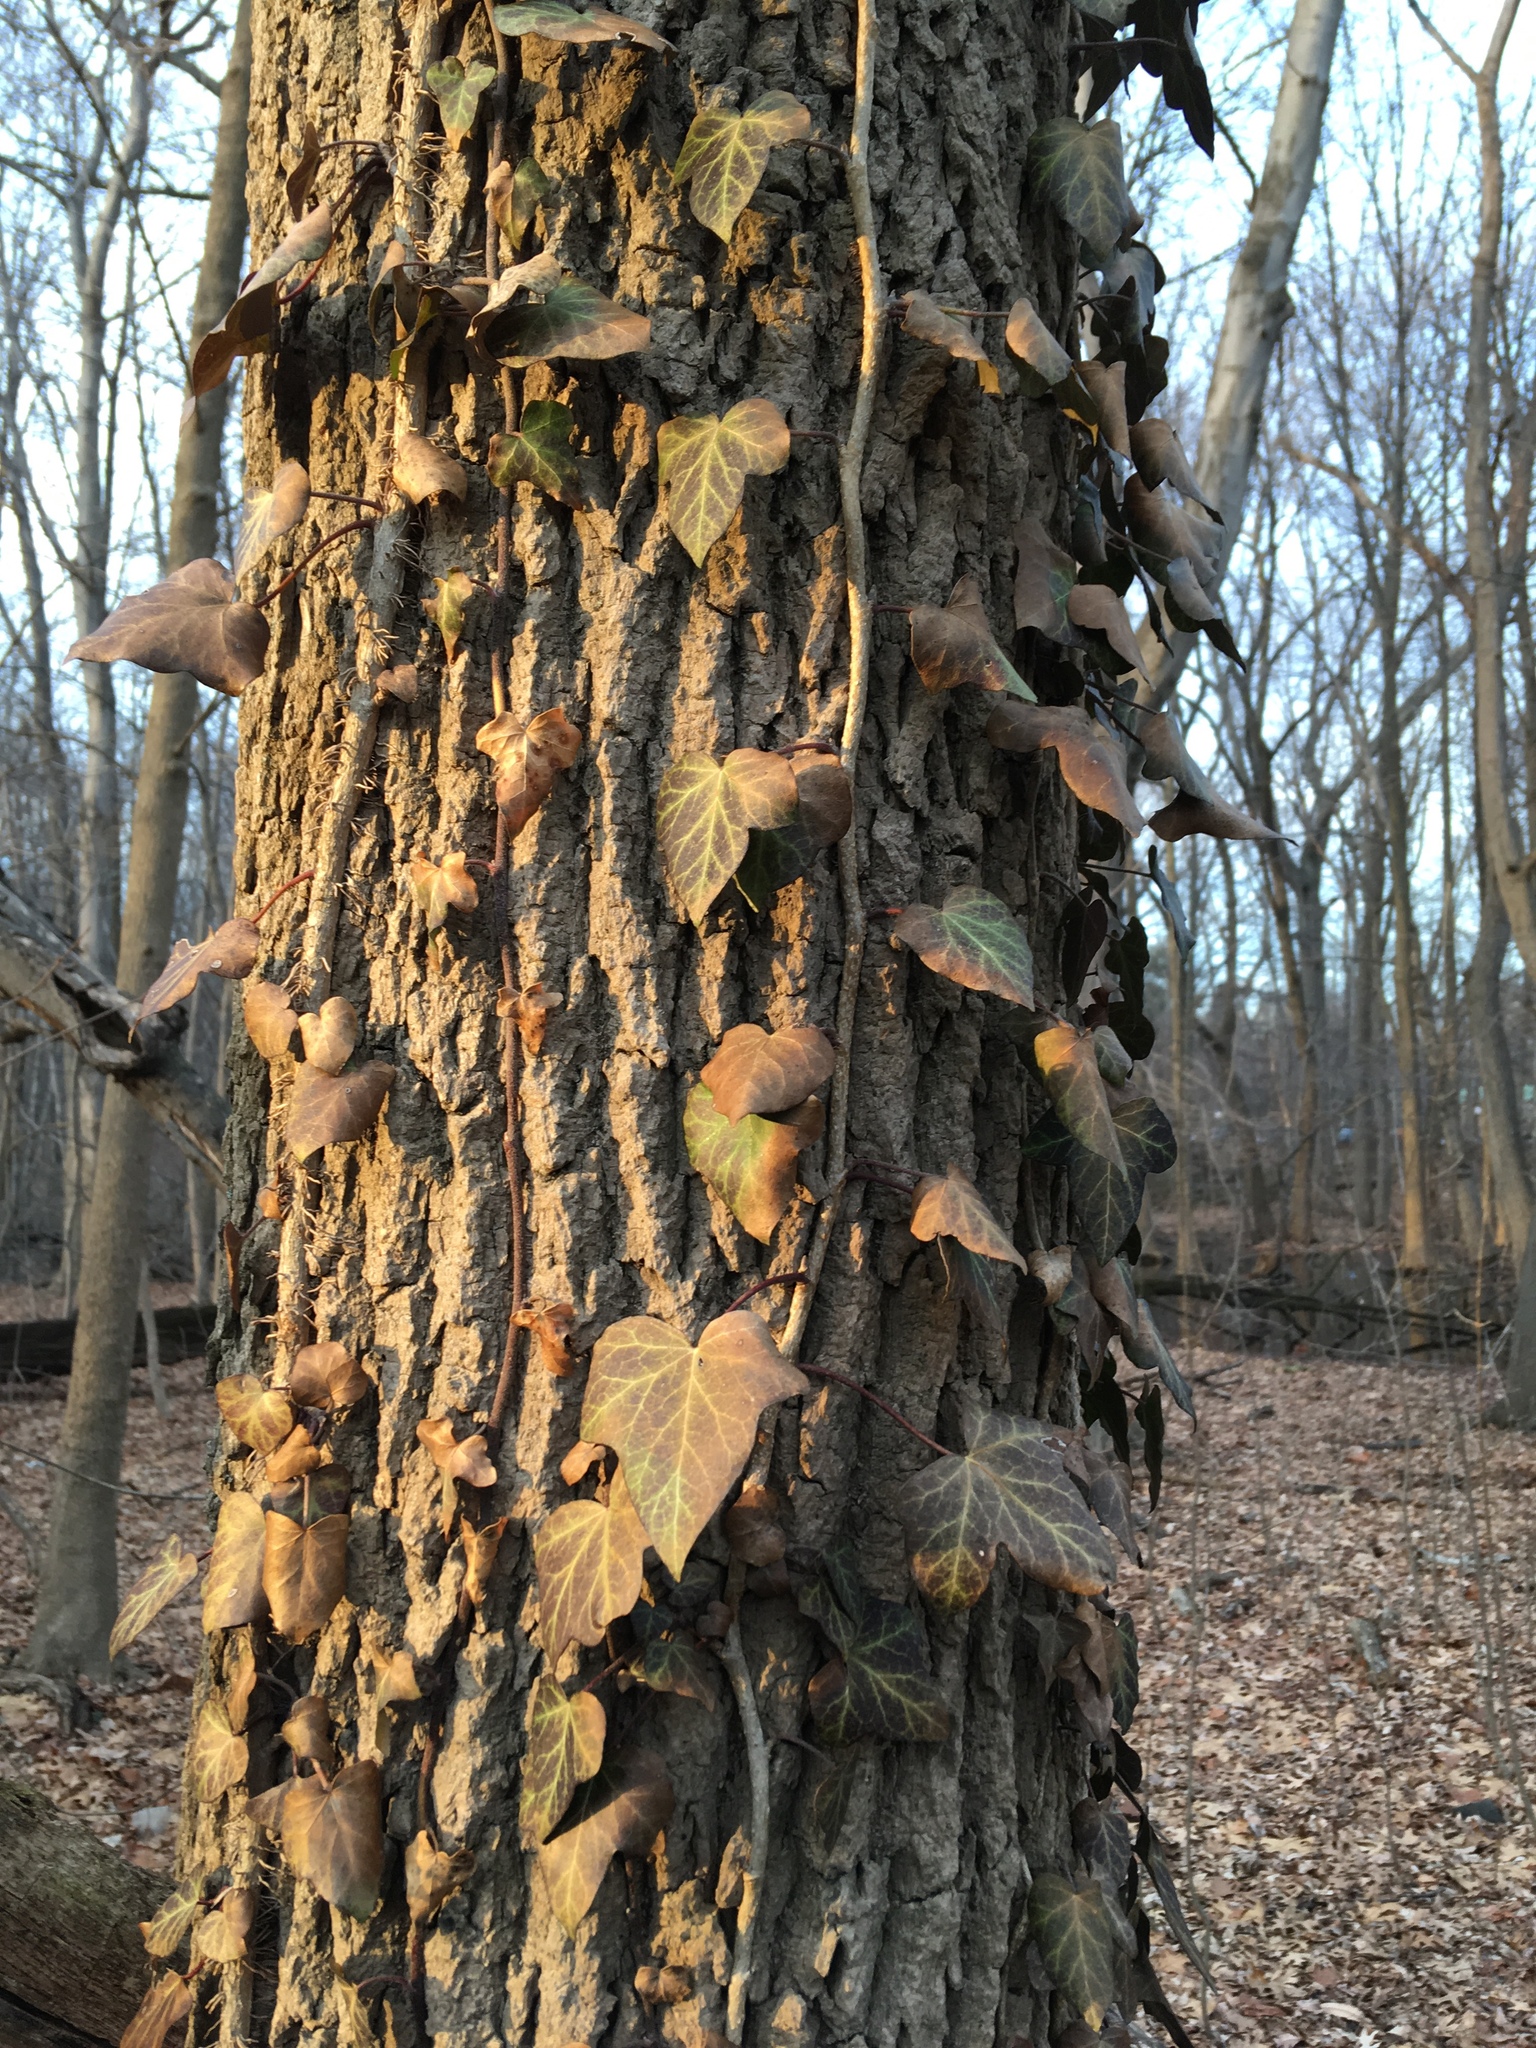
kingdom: Plantae
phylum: Tracheophyta
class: Magnoliopsida
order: Apiales
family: Araliaceae
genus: Hedera
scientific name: Hedera helix
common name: Ivy
